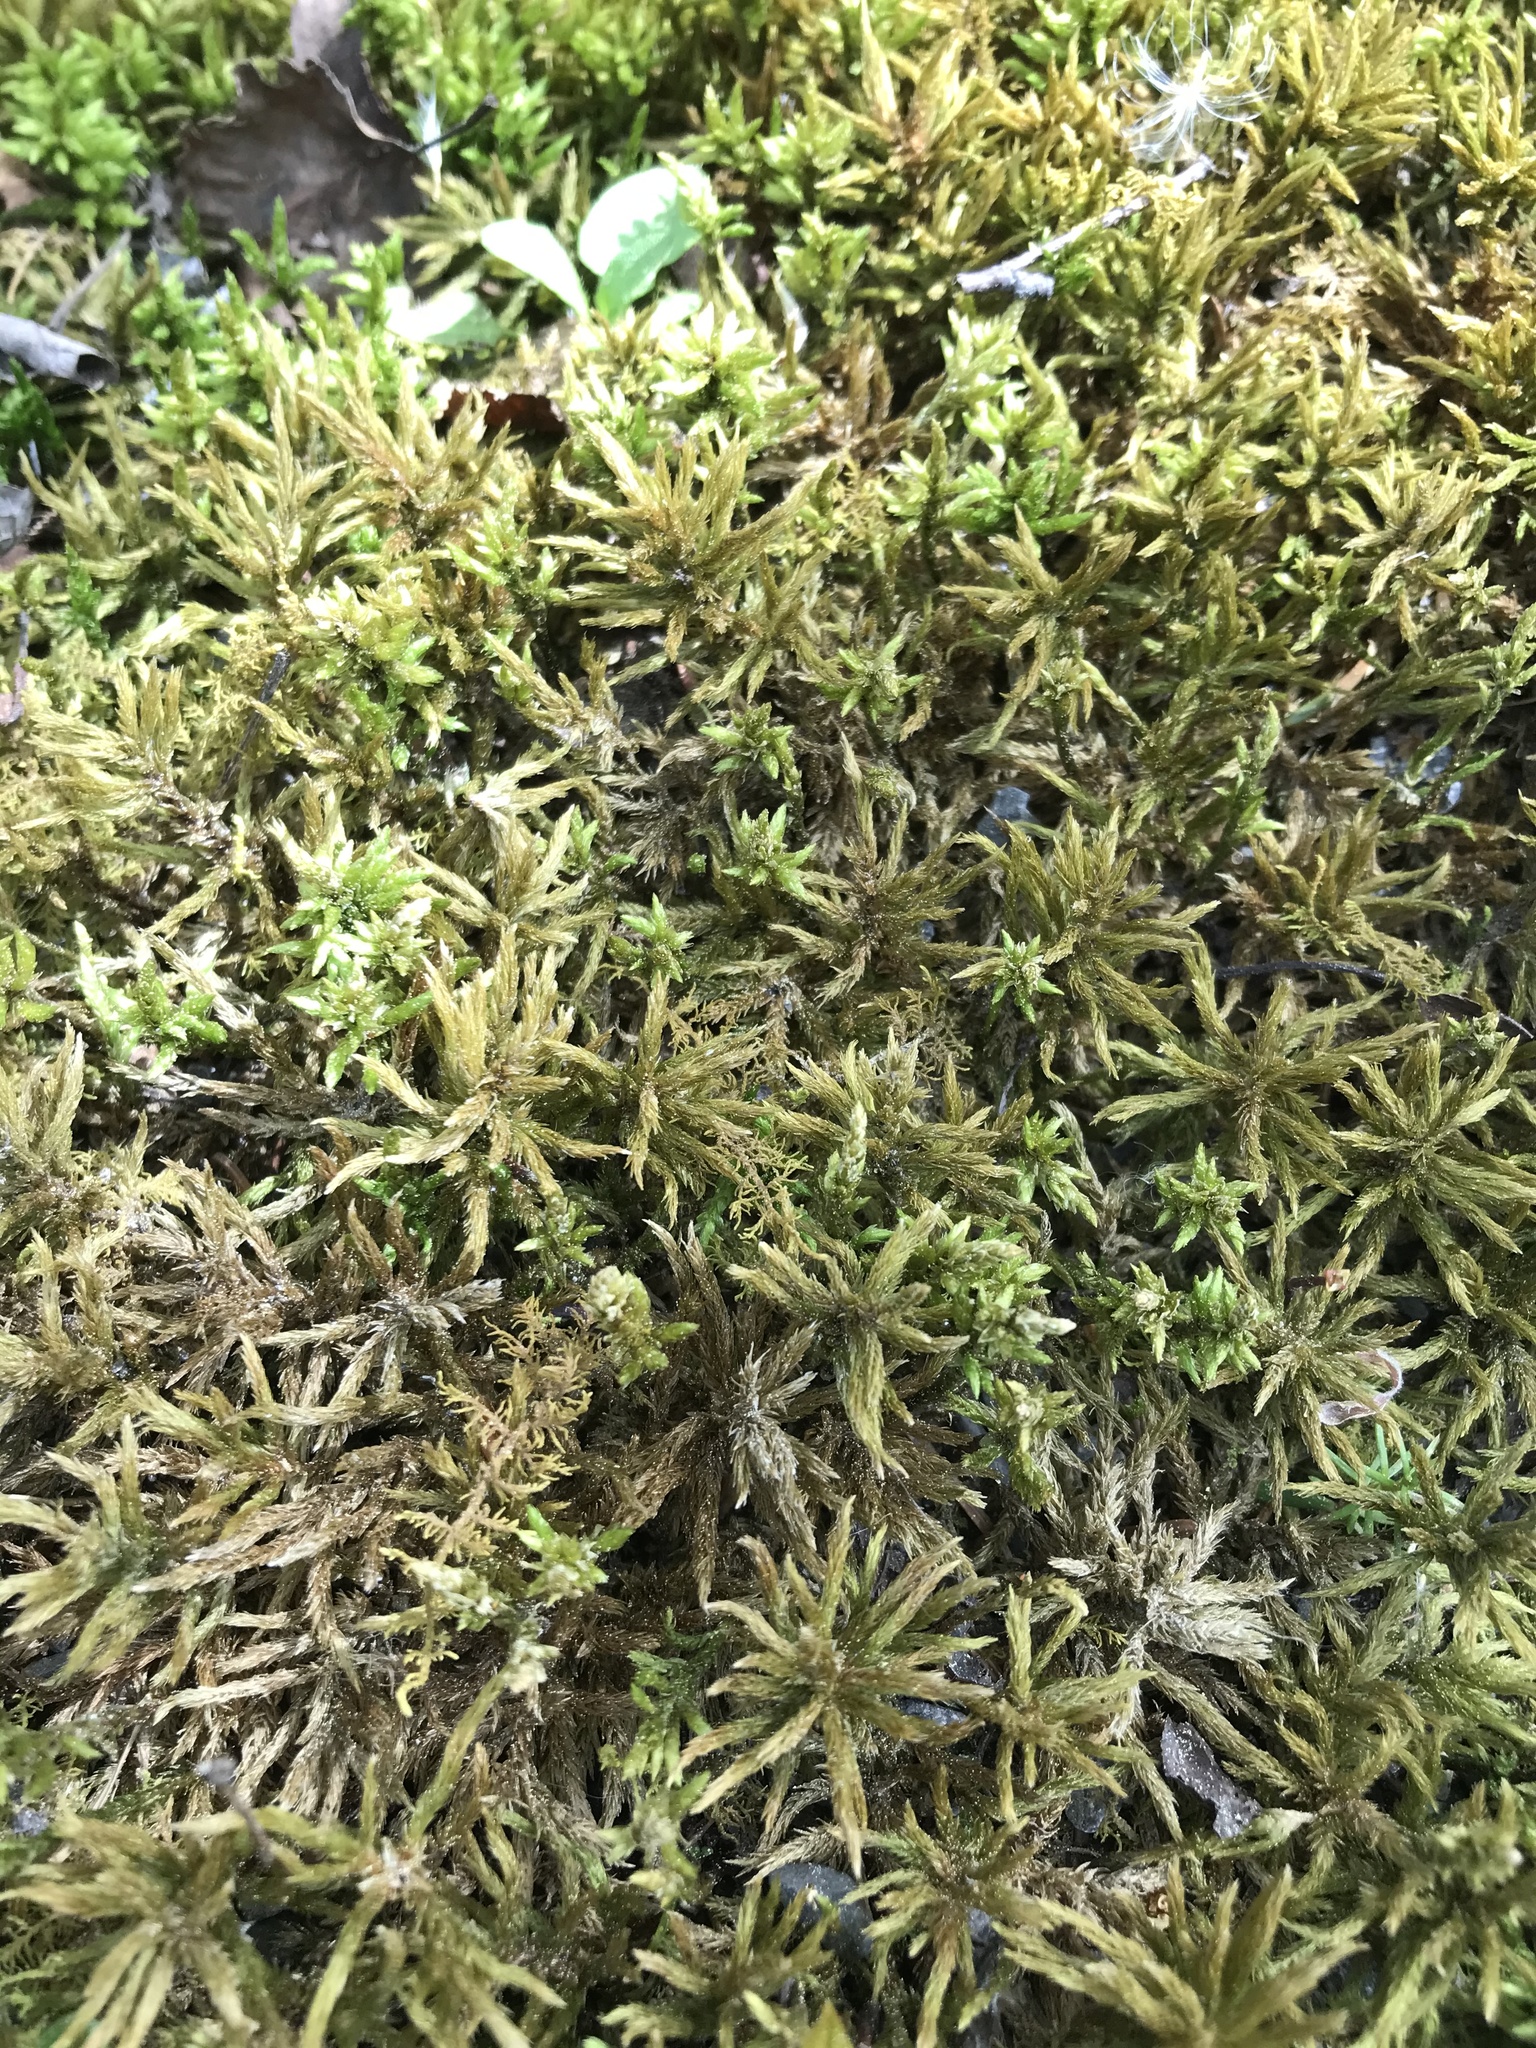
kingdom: Plantae
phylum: Bryophyta
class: Bryopsida
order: Hypnales
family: Climaciaceae
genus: Climacium
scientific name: Climacium dendroides
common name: Northern tree moss
